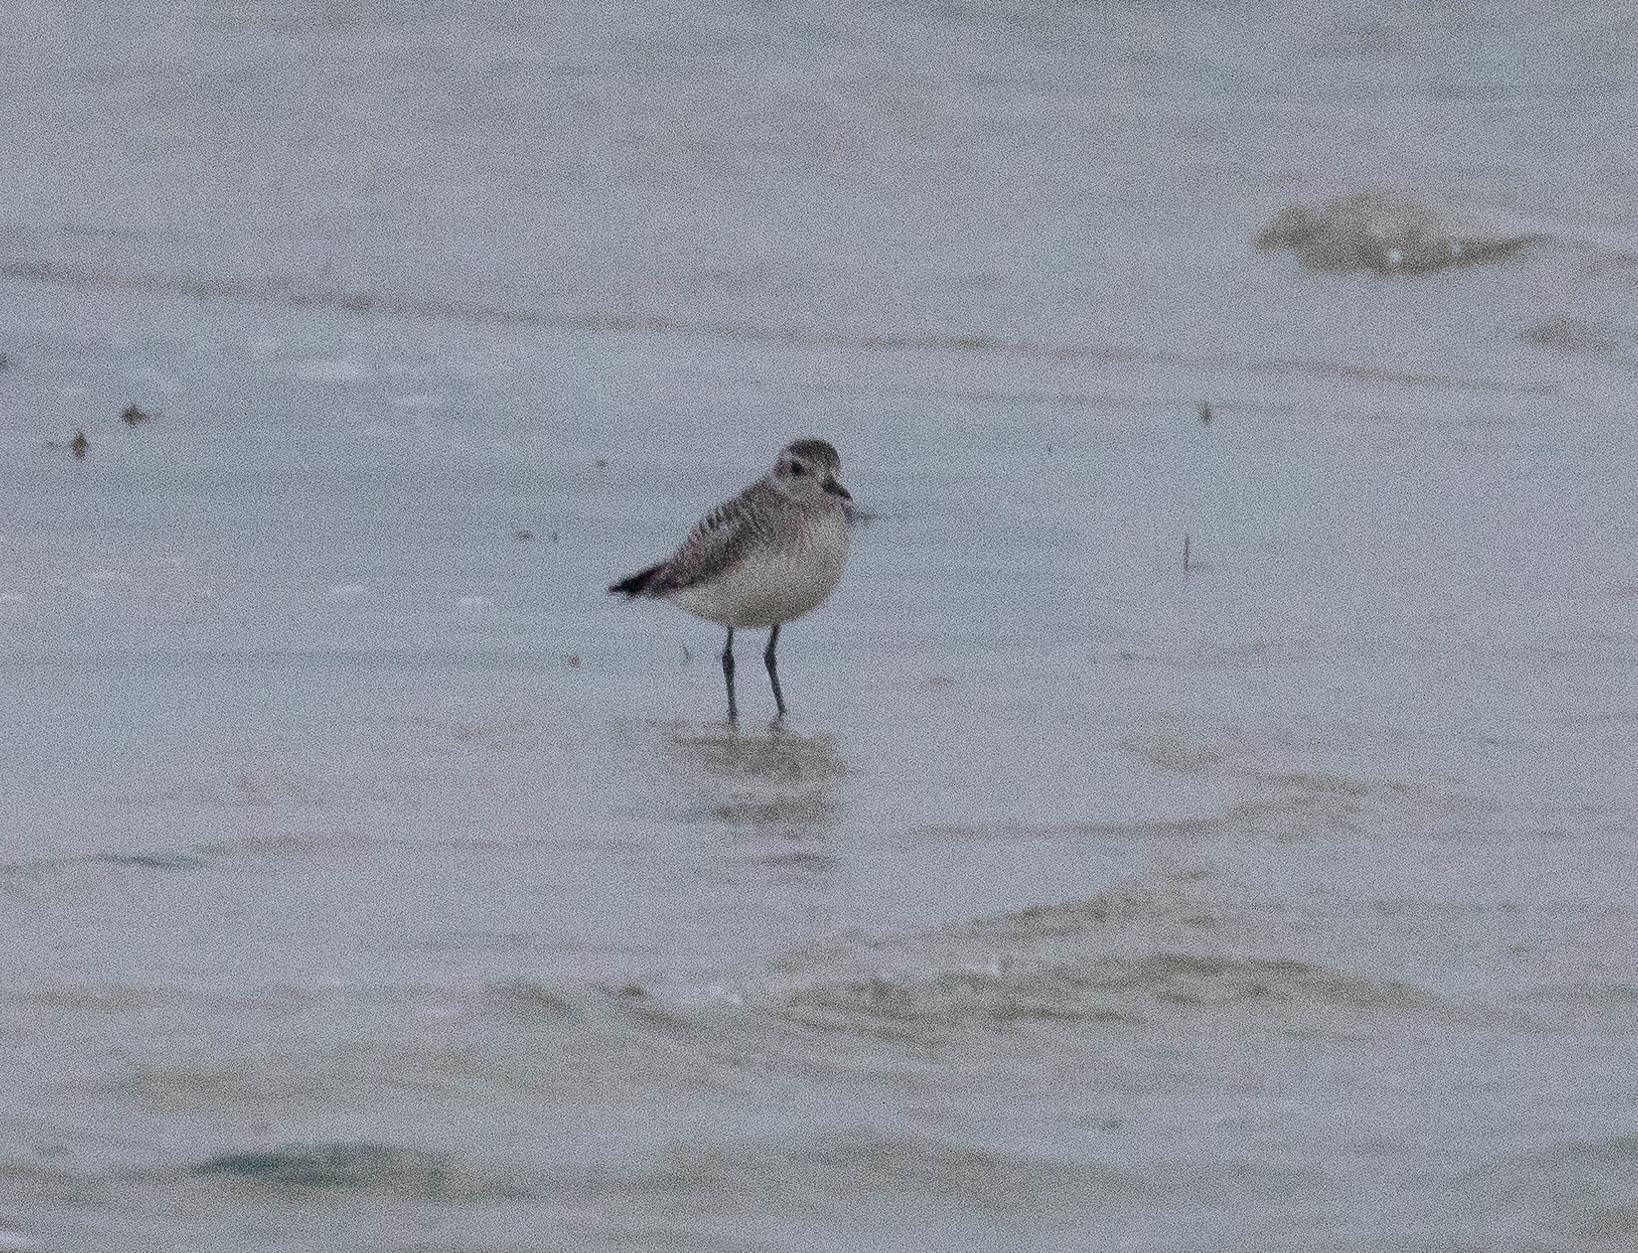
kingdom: Animalia
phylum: Chordata
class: Aves
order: Charadriiformes
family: Charadriidae
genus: Pluvialis
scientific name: Pluvialis squatarola
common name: Grey plover
